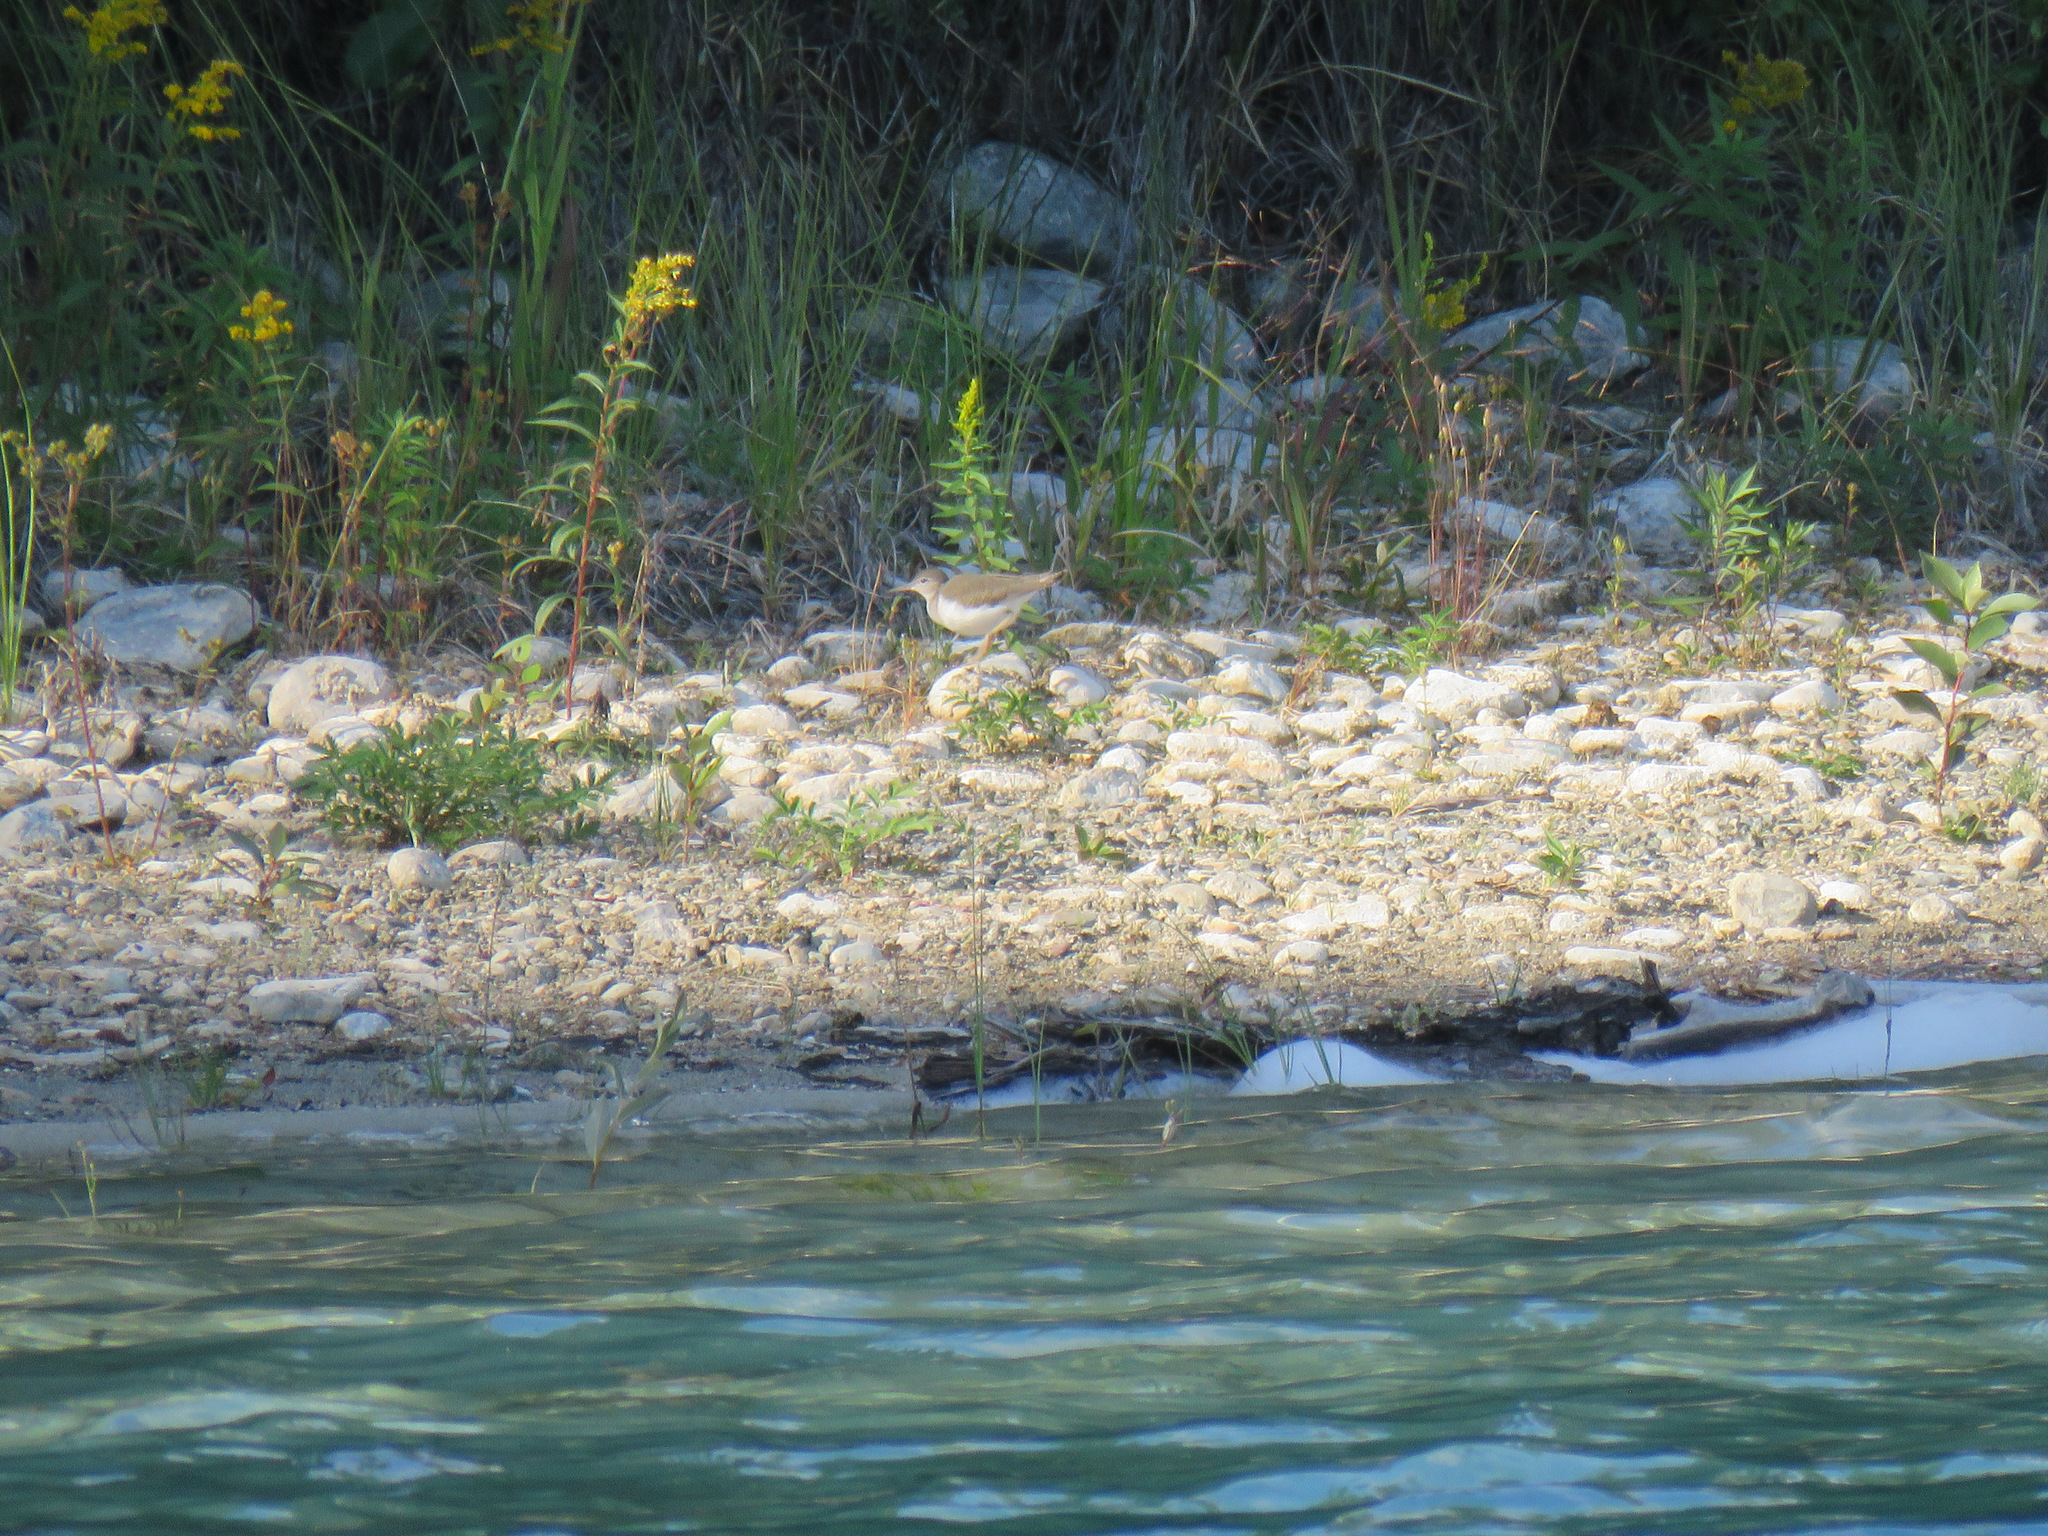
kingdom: Animalia
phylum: Chordata
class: Aves
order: Charadriiformes
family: Scolopacidae
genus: Actitis
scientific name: Actitis macularius
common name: Spotted sandpiper
